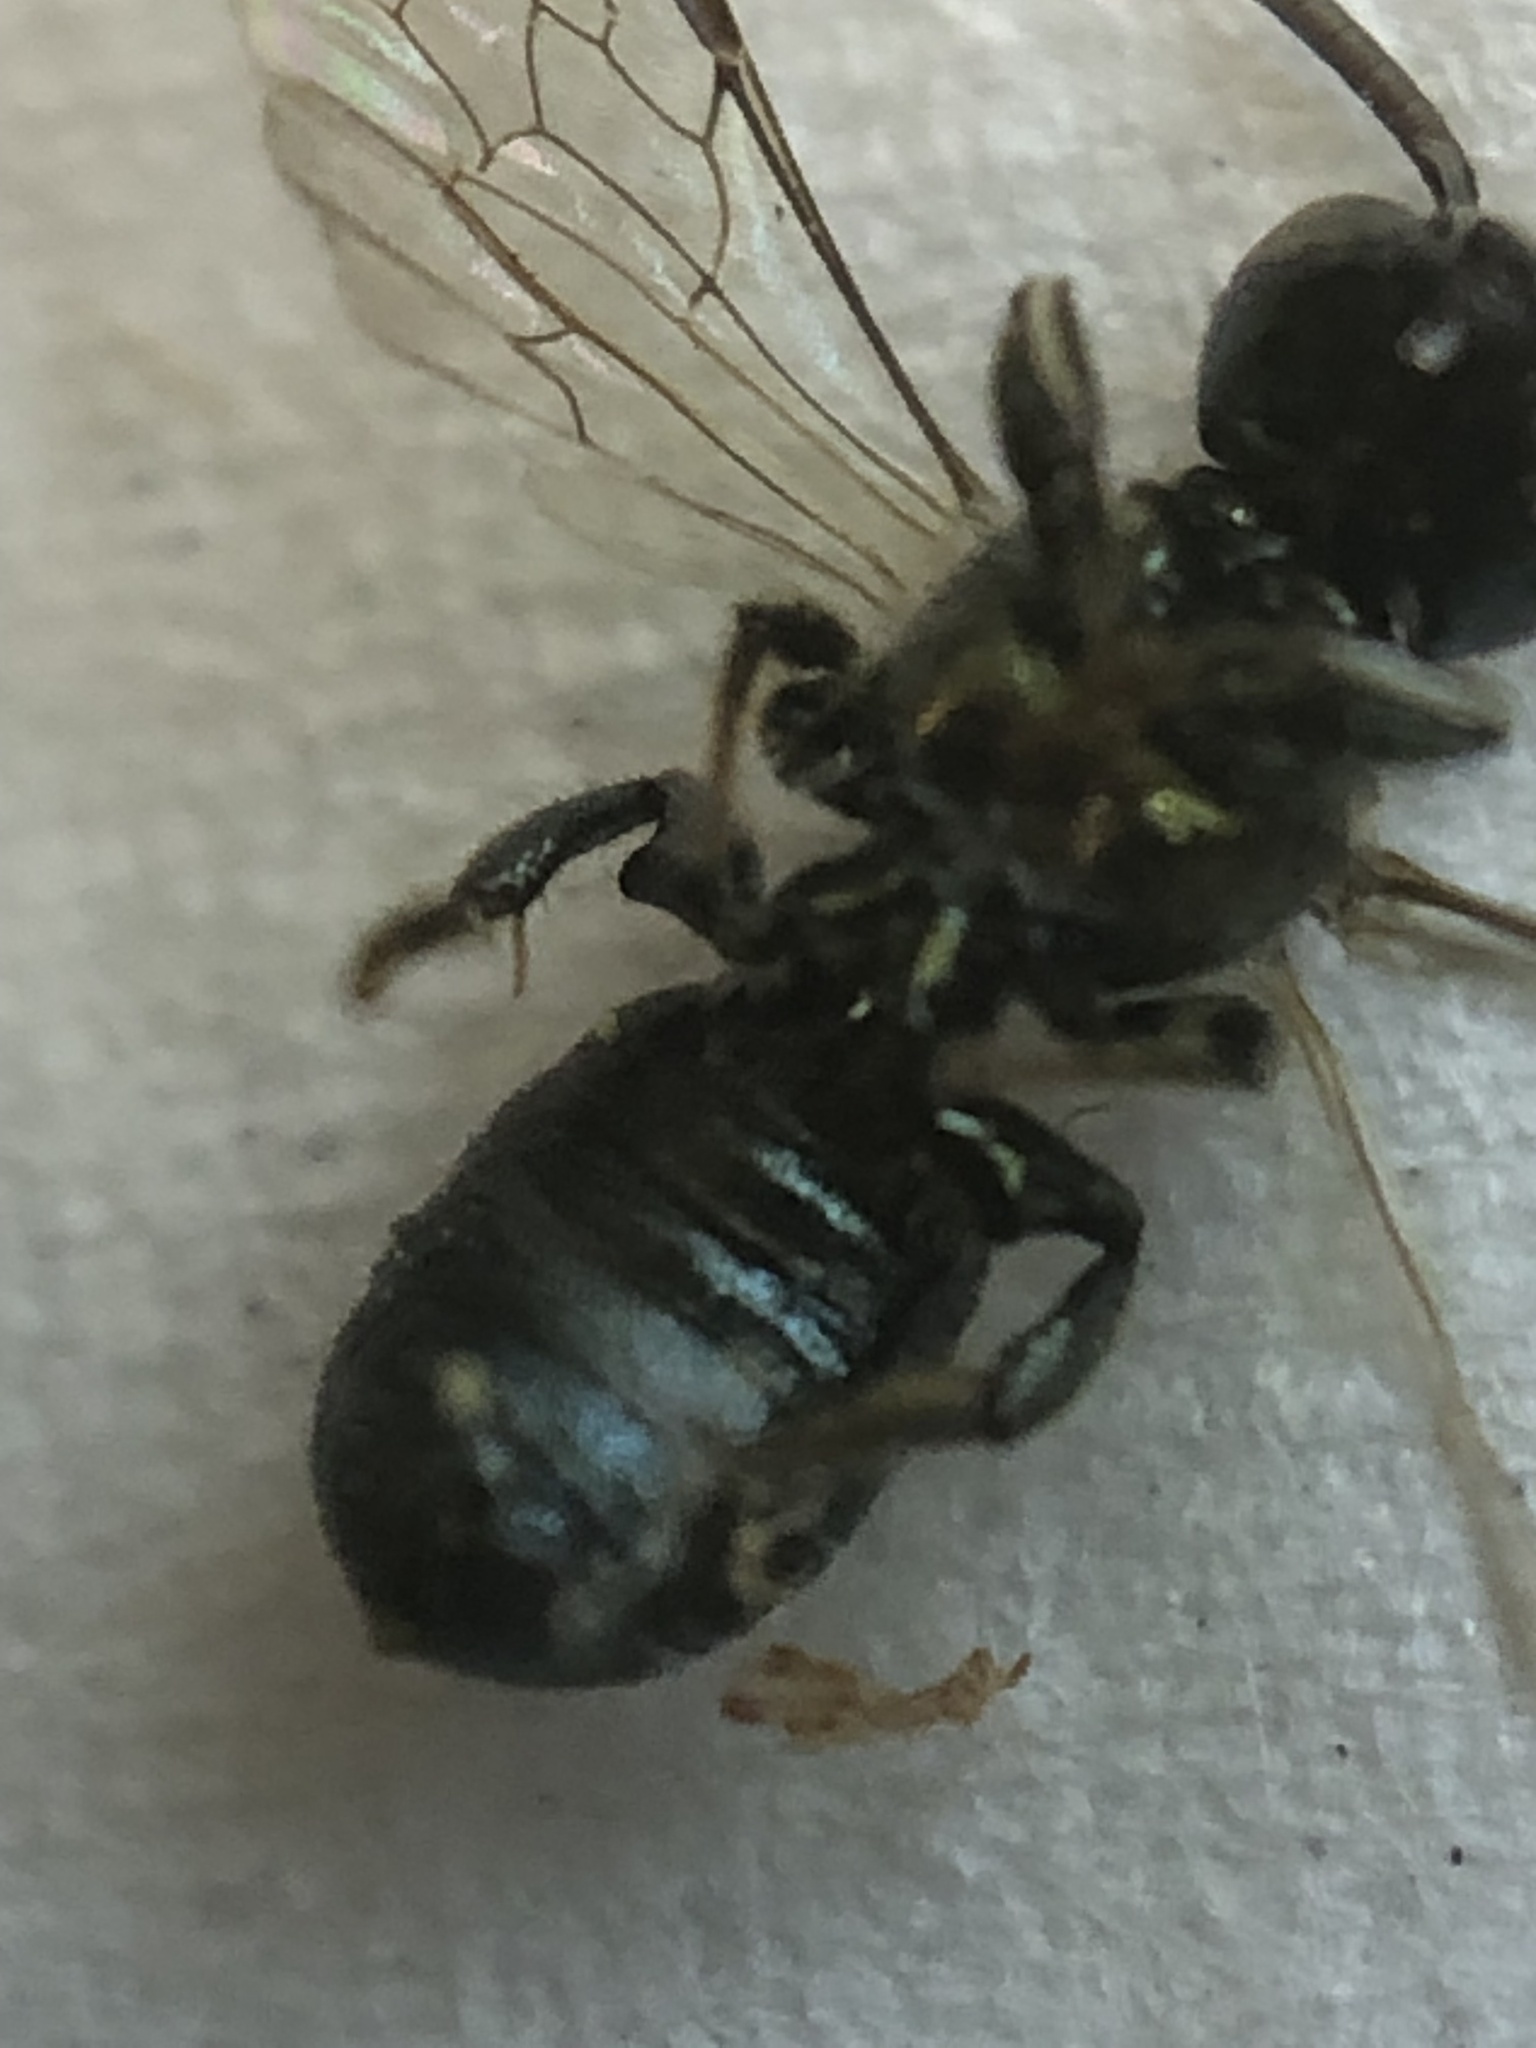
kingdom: Animalia
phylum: Arthropoda
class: Insecta
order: Hymenoptera
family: Apidae
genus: Ceratina
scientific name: Ceratina strenua
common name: Nimble carpenter bee
